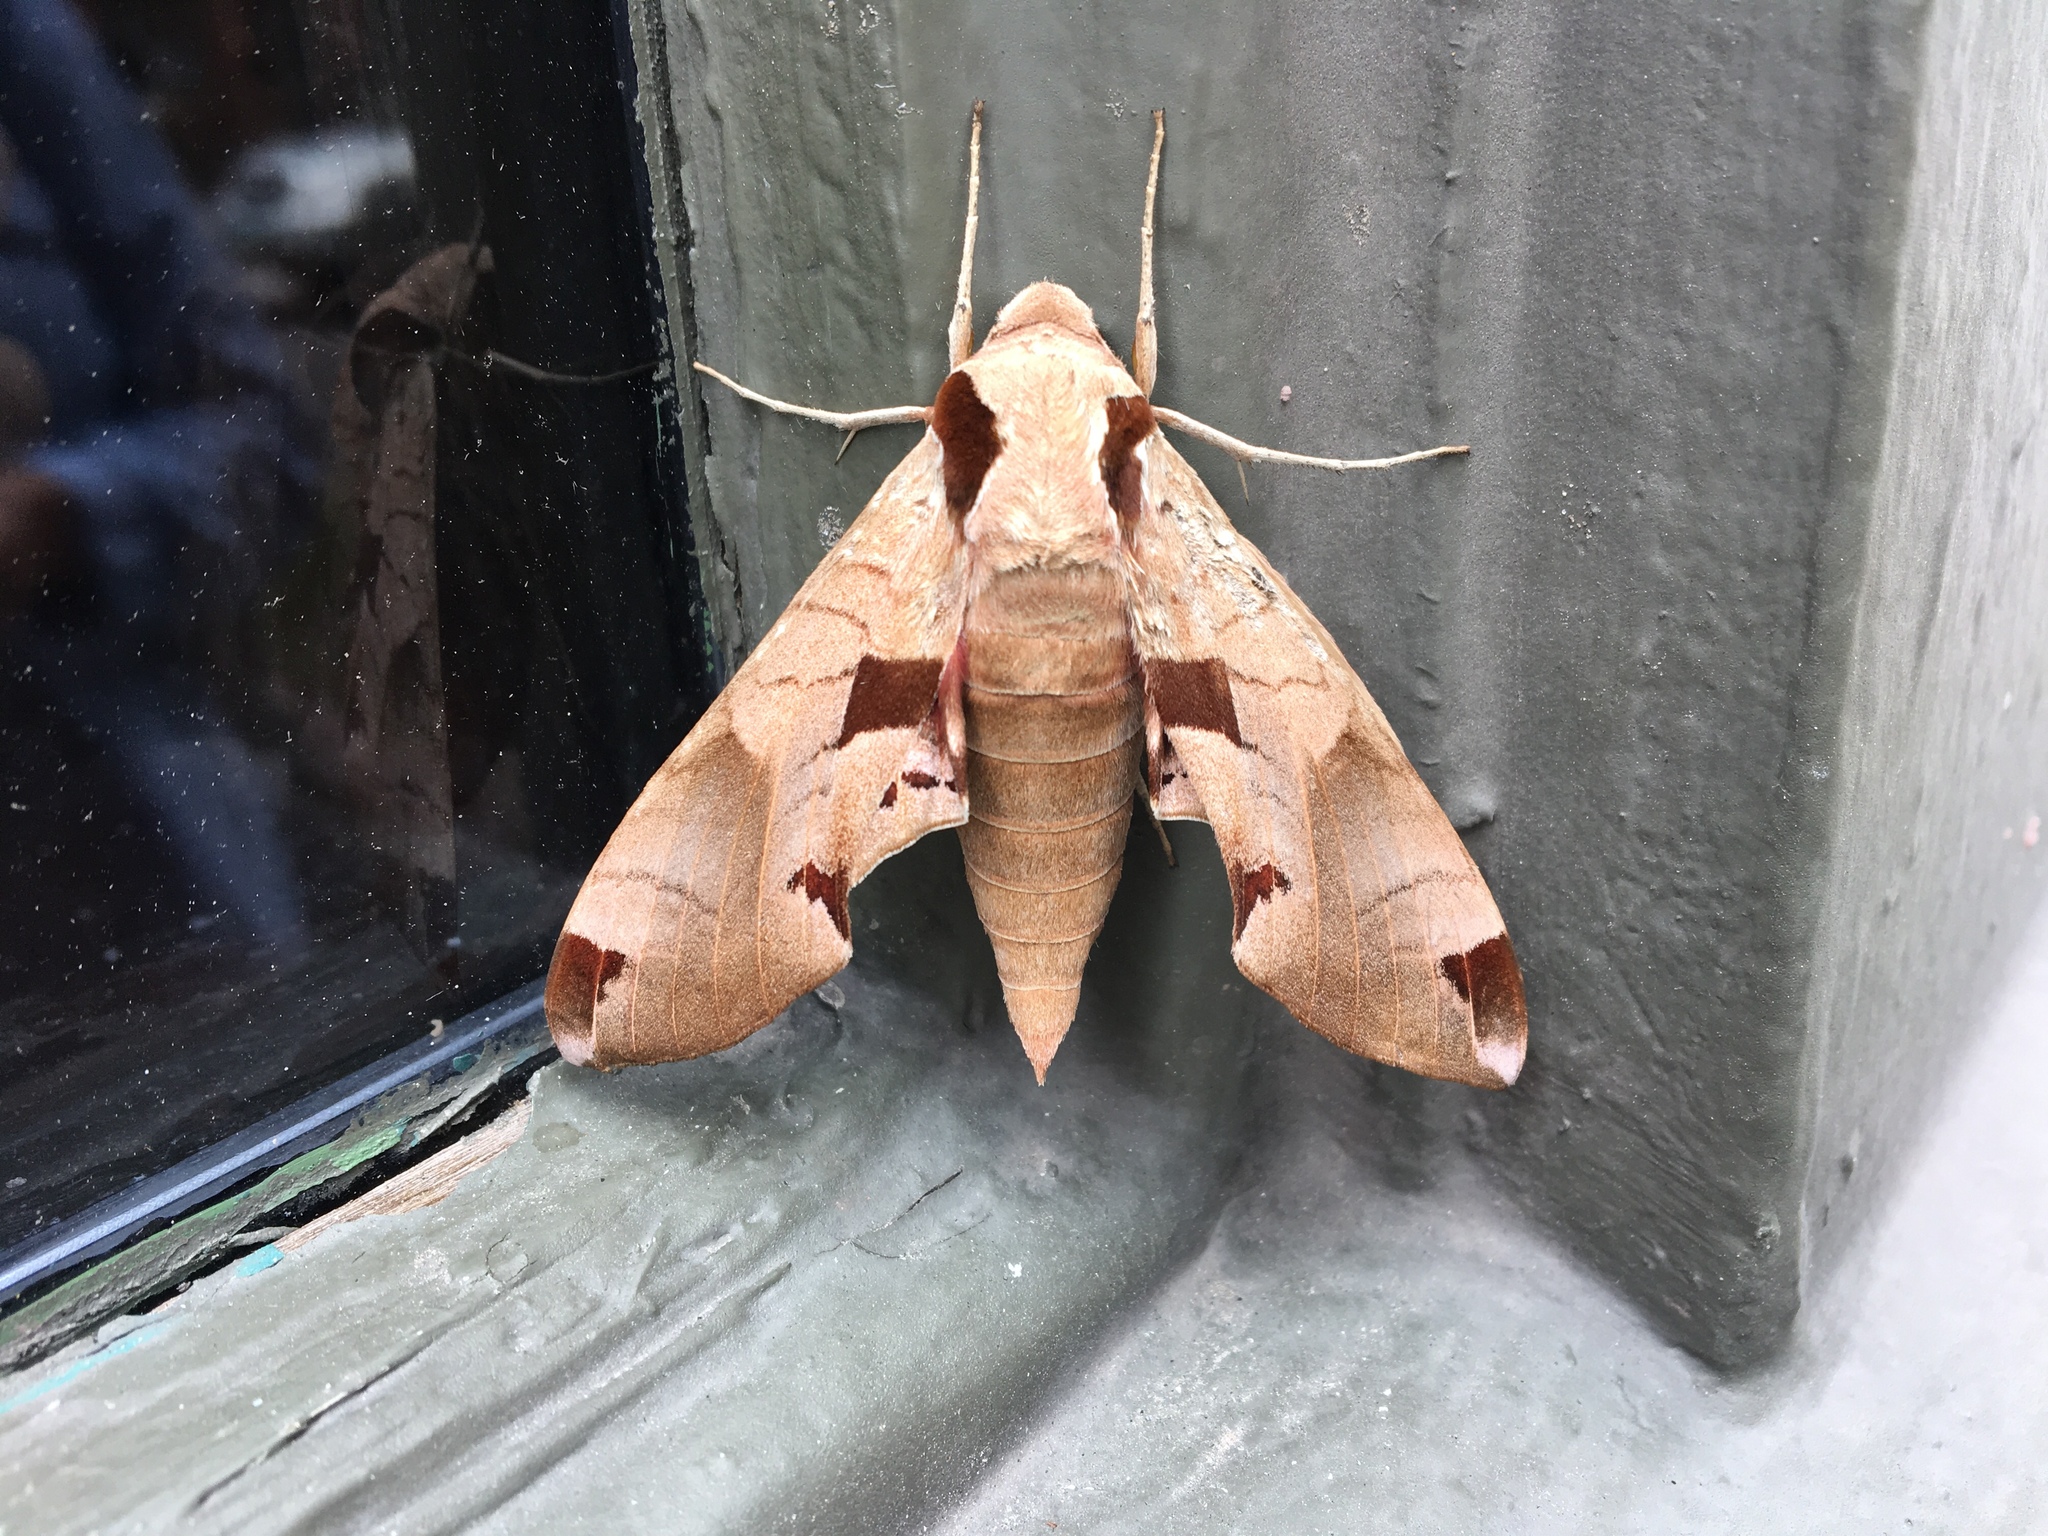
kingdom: Animalia
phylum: Arthropoda
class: Insecta
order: Lepidoptera
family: Sphingidae
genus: Eumorpha
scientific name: Eumorpha achemon
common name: Achemon sphinx
